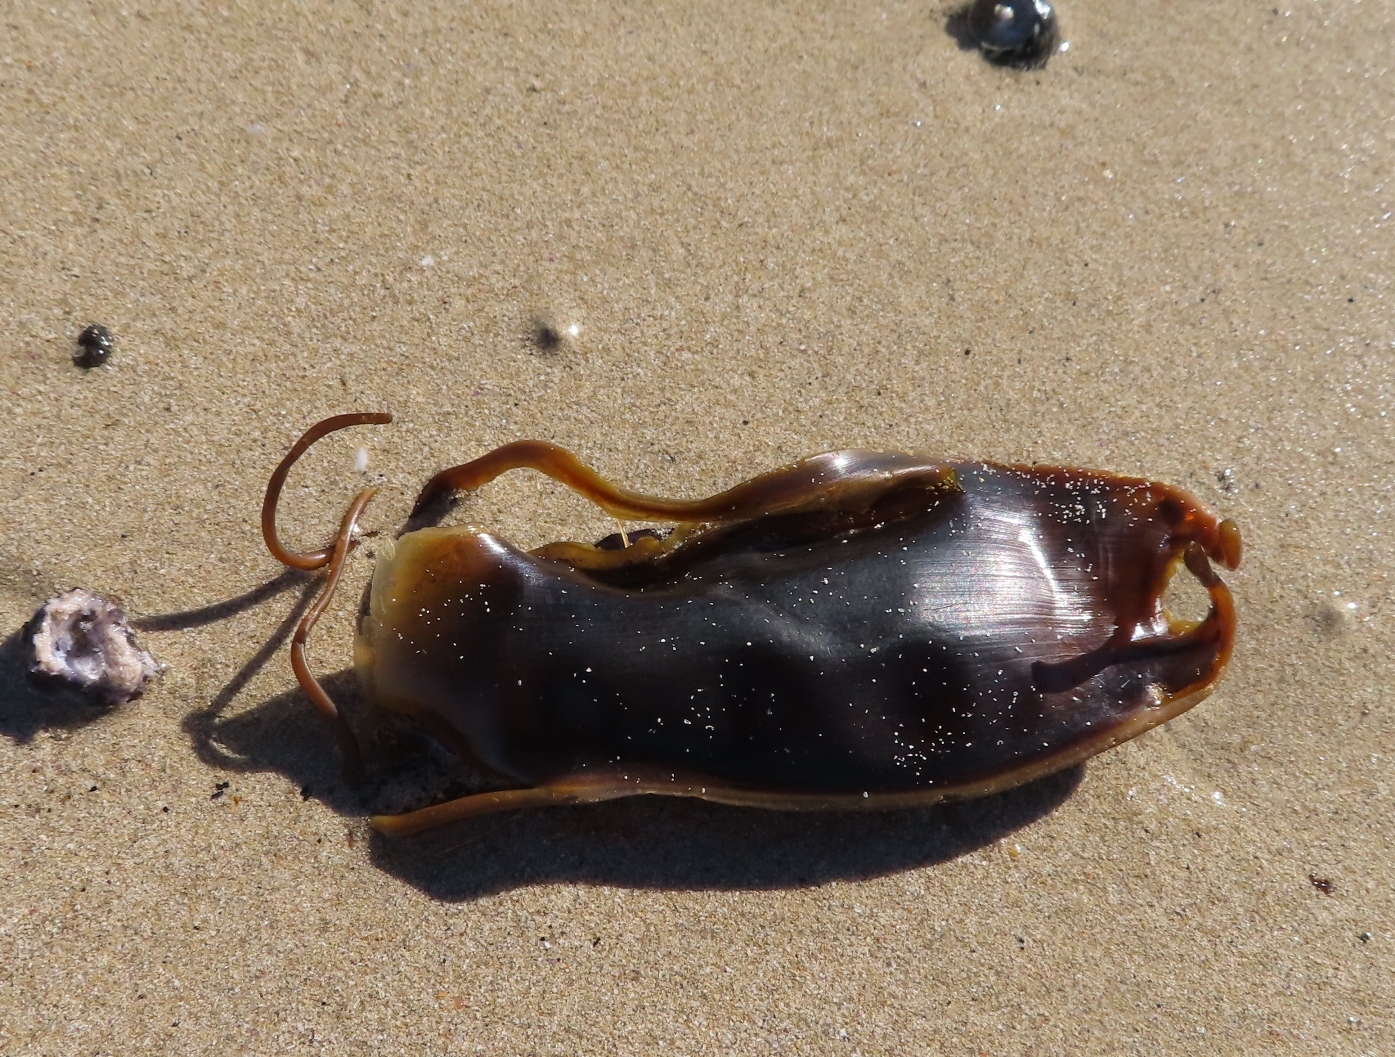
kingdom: Animalia
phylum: Chordata
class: Elasmobranchii
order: Carcharhiniformes
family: Scyliorhinidae
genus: Poroderma
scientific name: Poroderma africanum
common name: Pyjama shark
